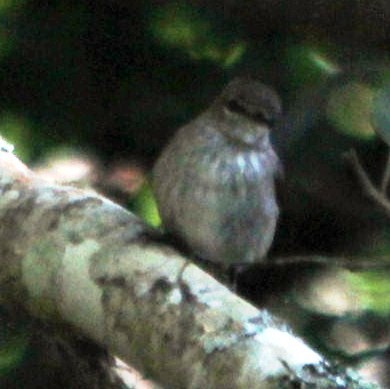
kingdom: Animalia
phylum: Chordata
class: Aves
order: Passeriformes
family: Muscicapidae
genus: Muscicapa
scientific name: Muscicapa adusta
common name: African dusky flycatcher
